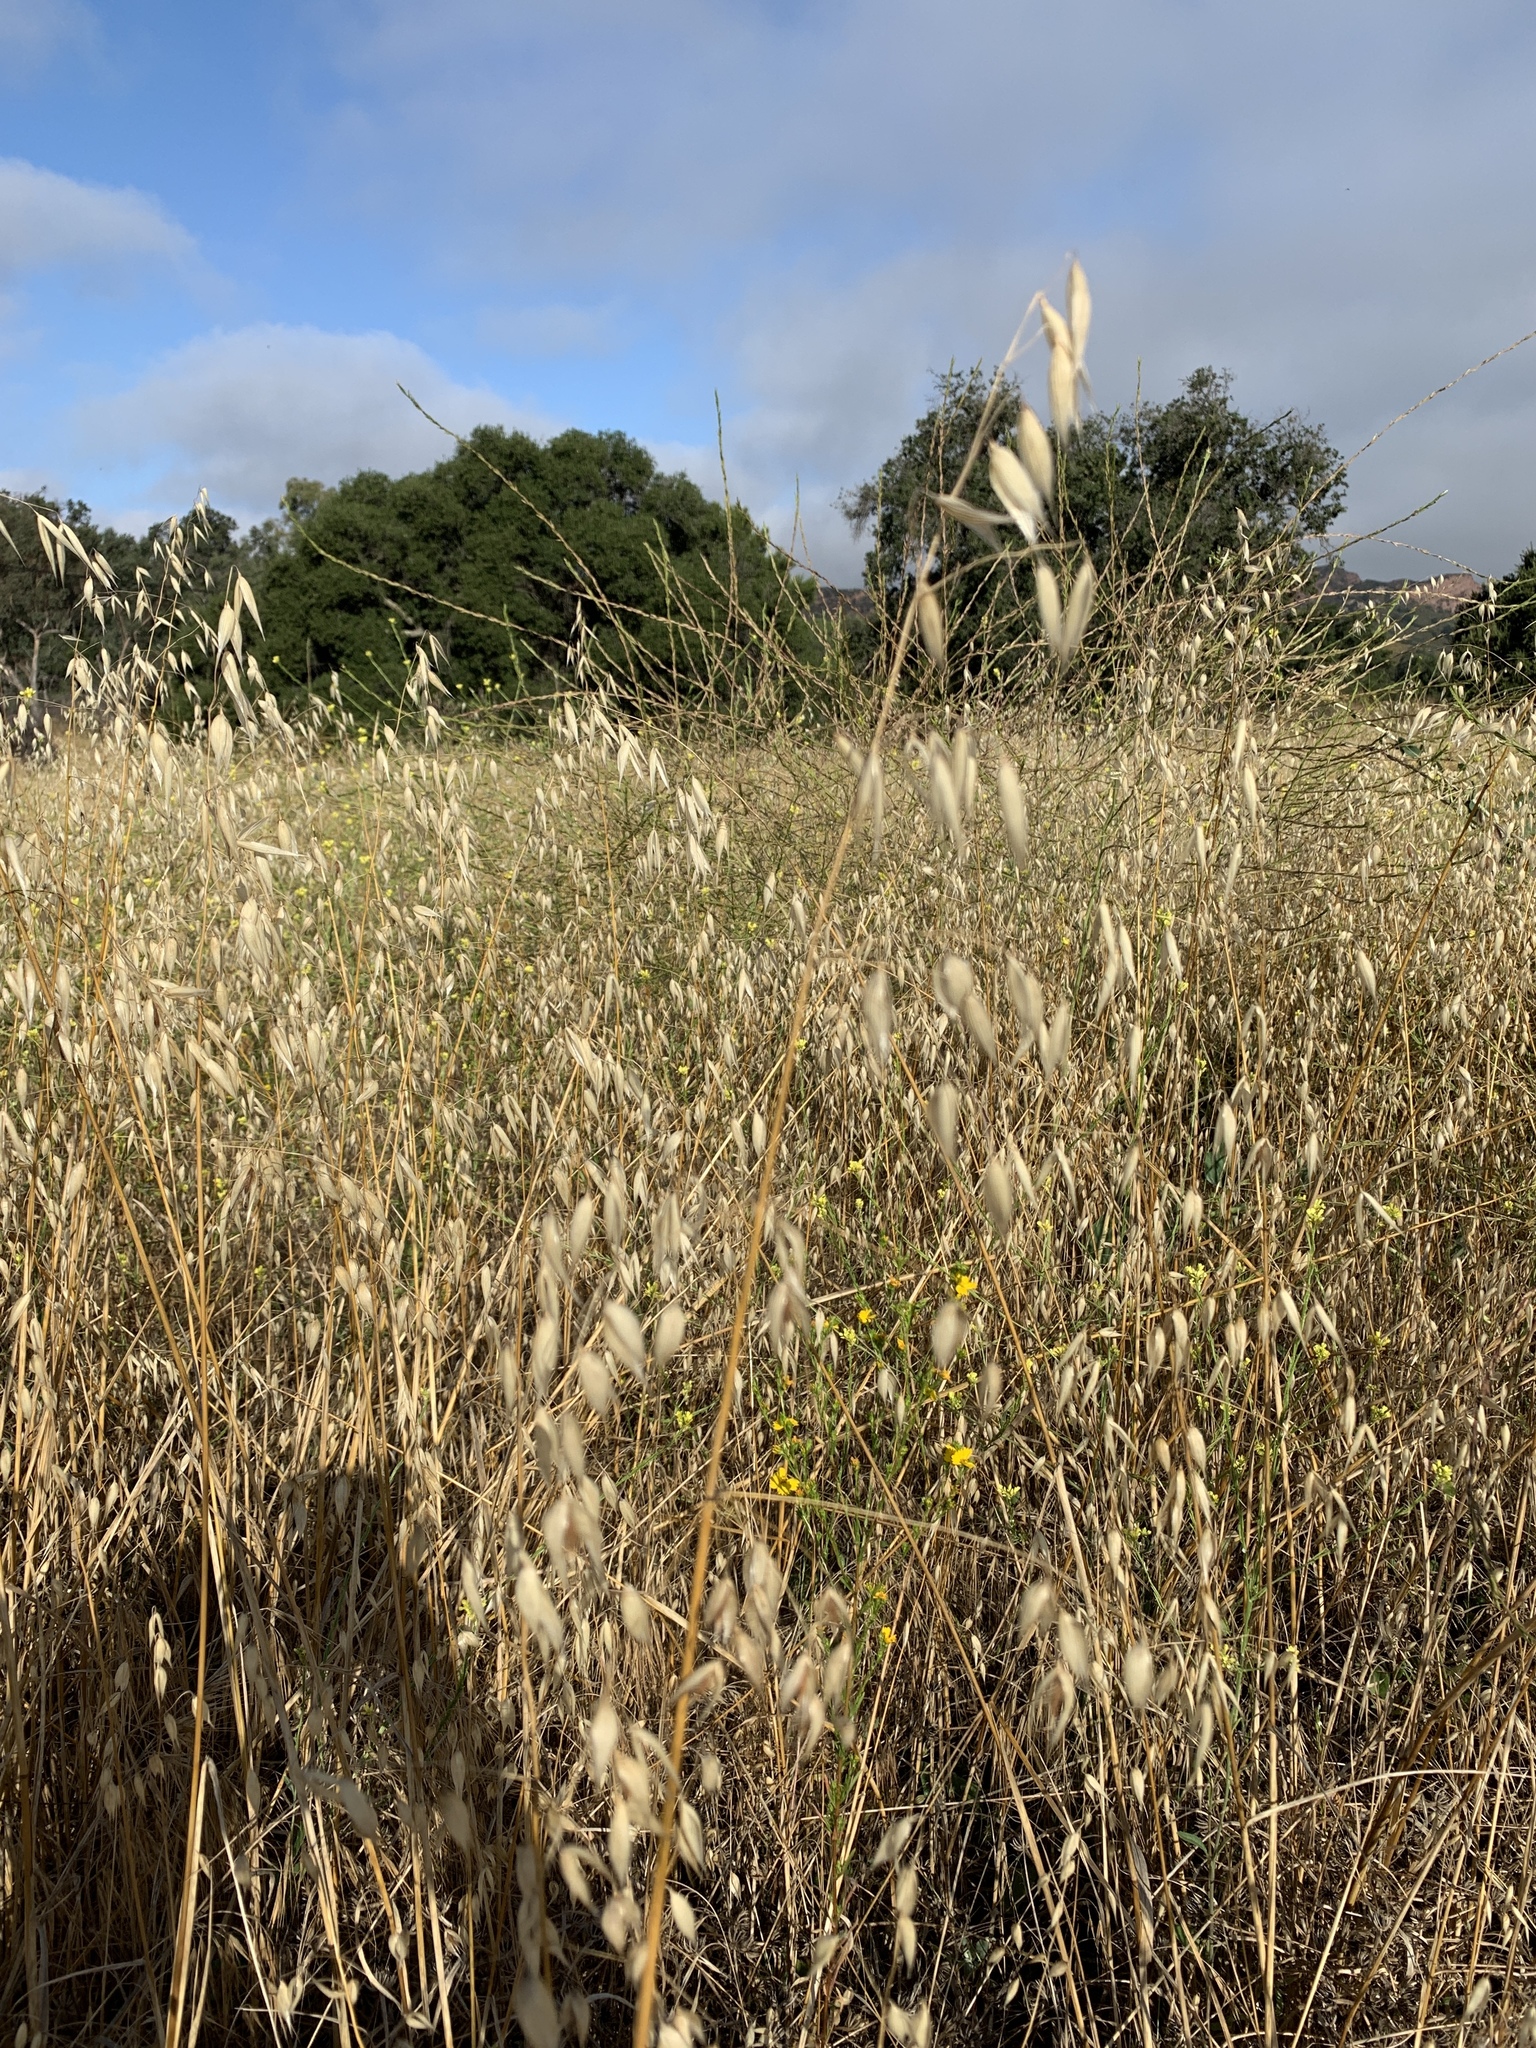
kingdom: Plantae
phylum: Tracheophyta
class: Liliopsida
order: Poales
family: Poaceae
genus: Avena
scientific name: Avena fatua
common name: Wild oat
